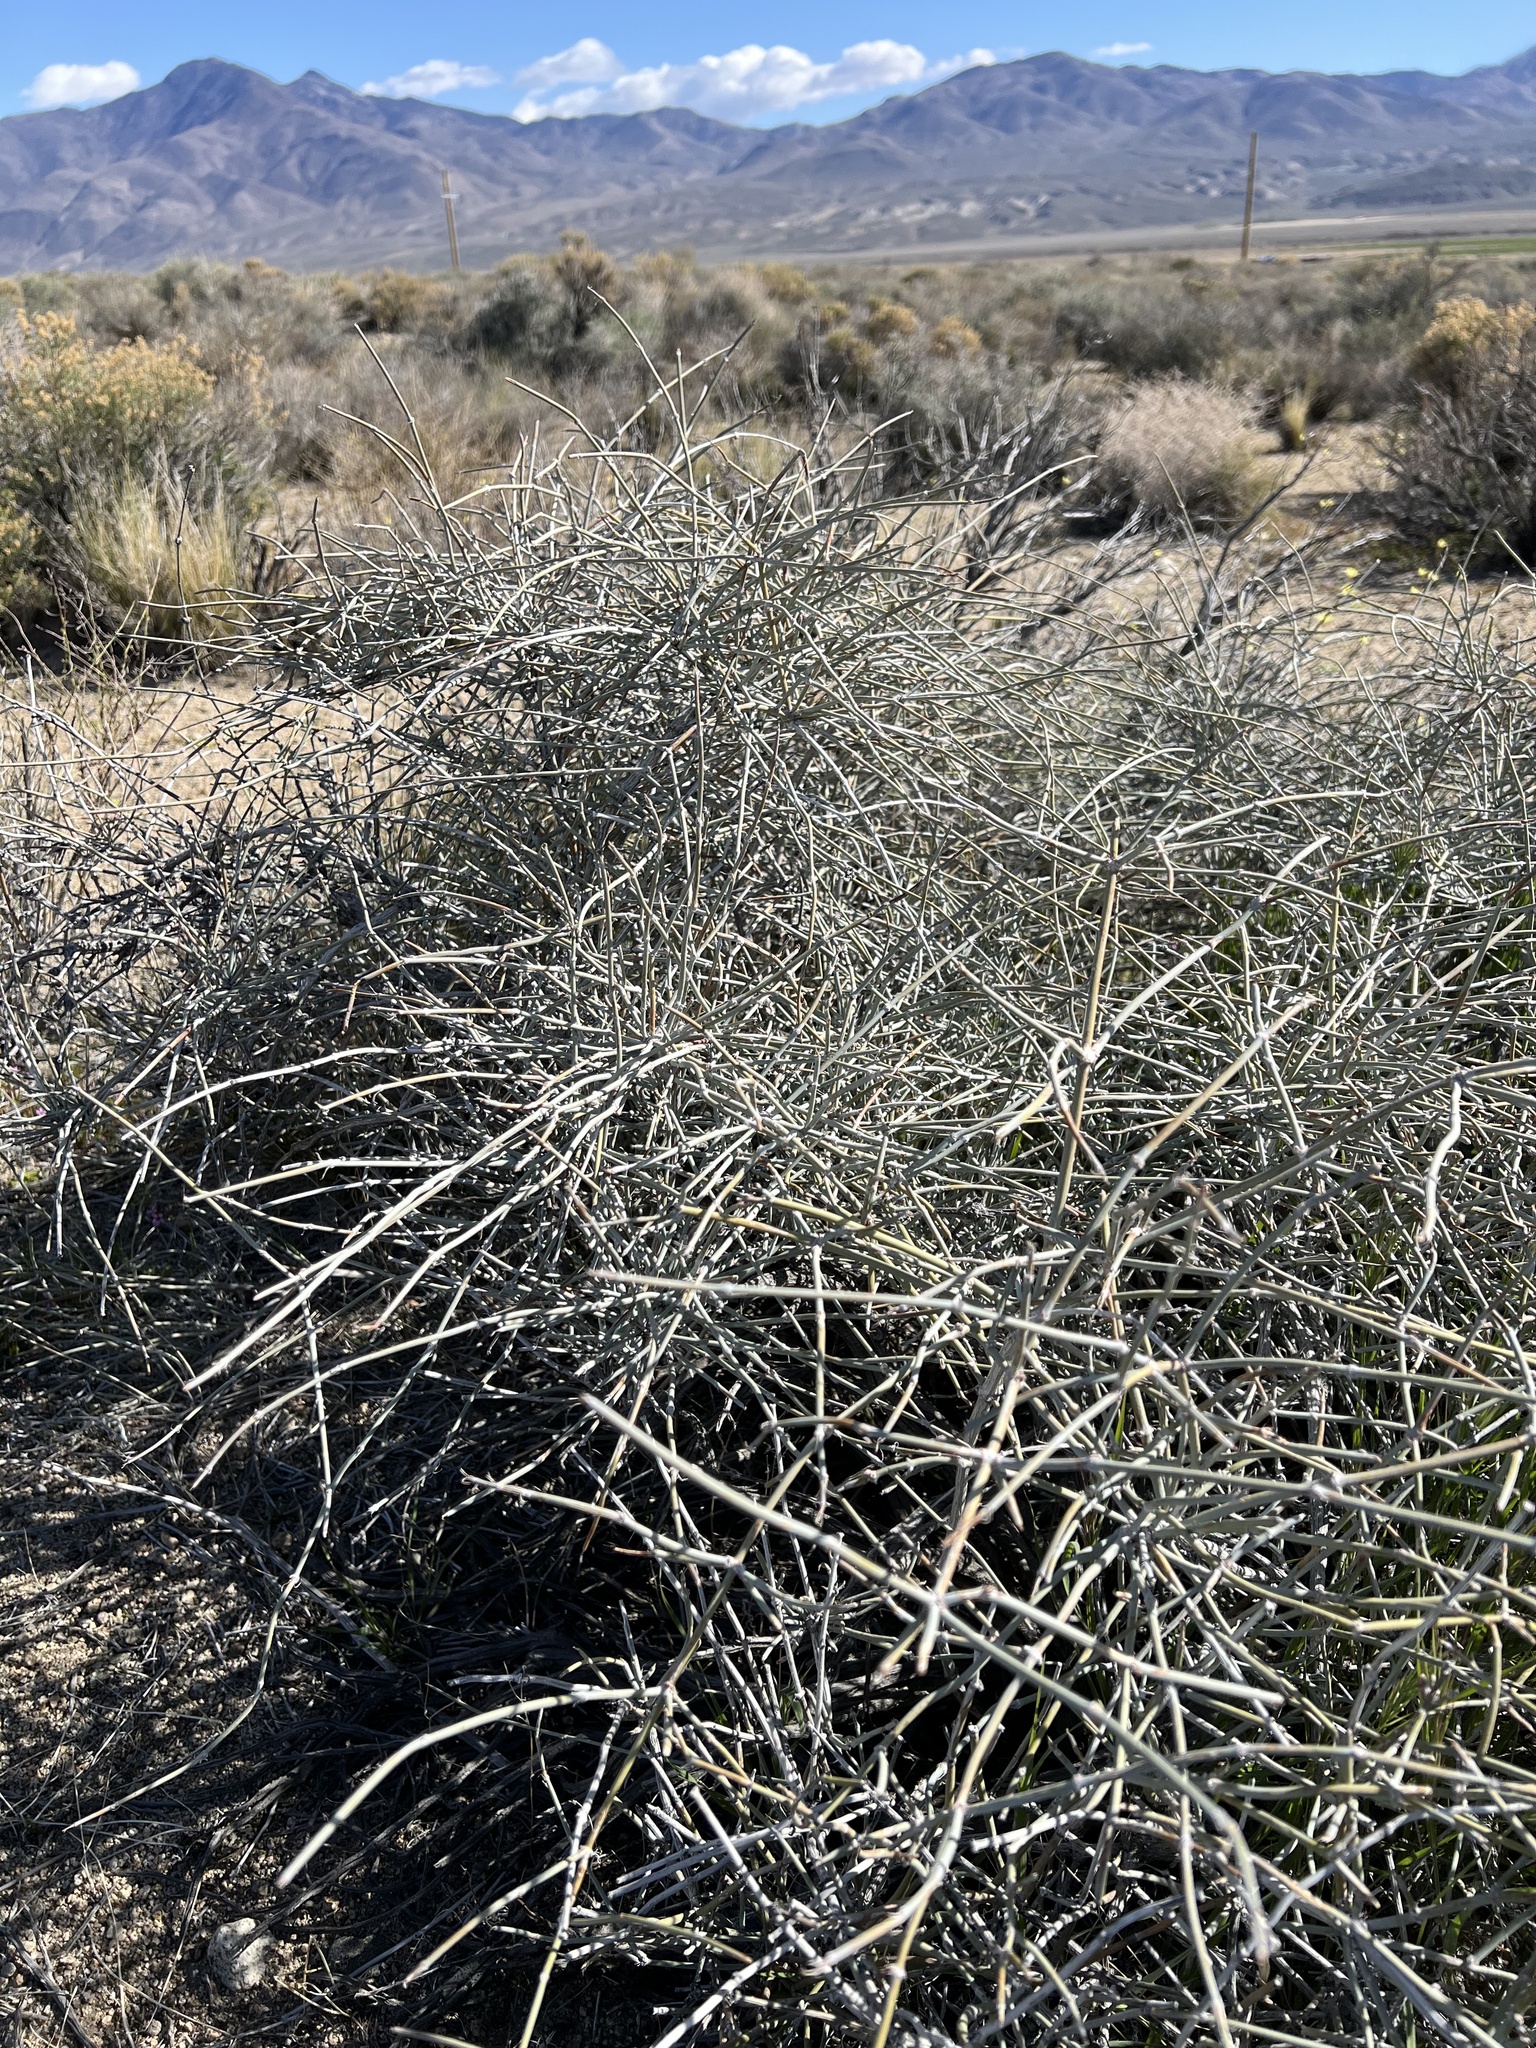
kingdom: Plantae
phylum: Tracheophyta
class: Gnetopsida
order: Ephedrales
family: Ephedraceae
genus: Ephedra
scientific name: Ephedra nevadensis
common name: Gray ephedra
